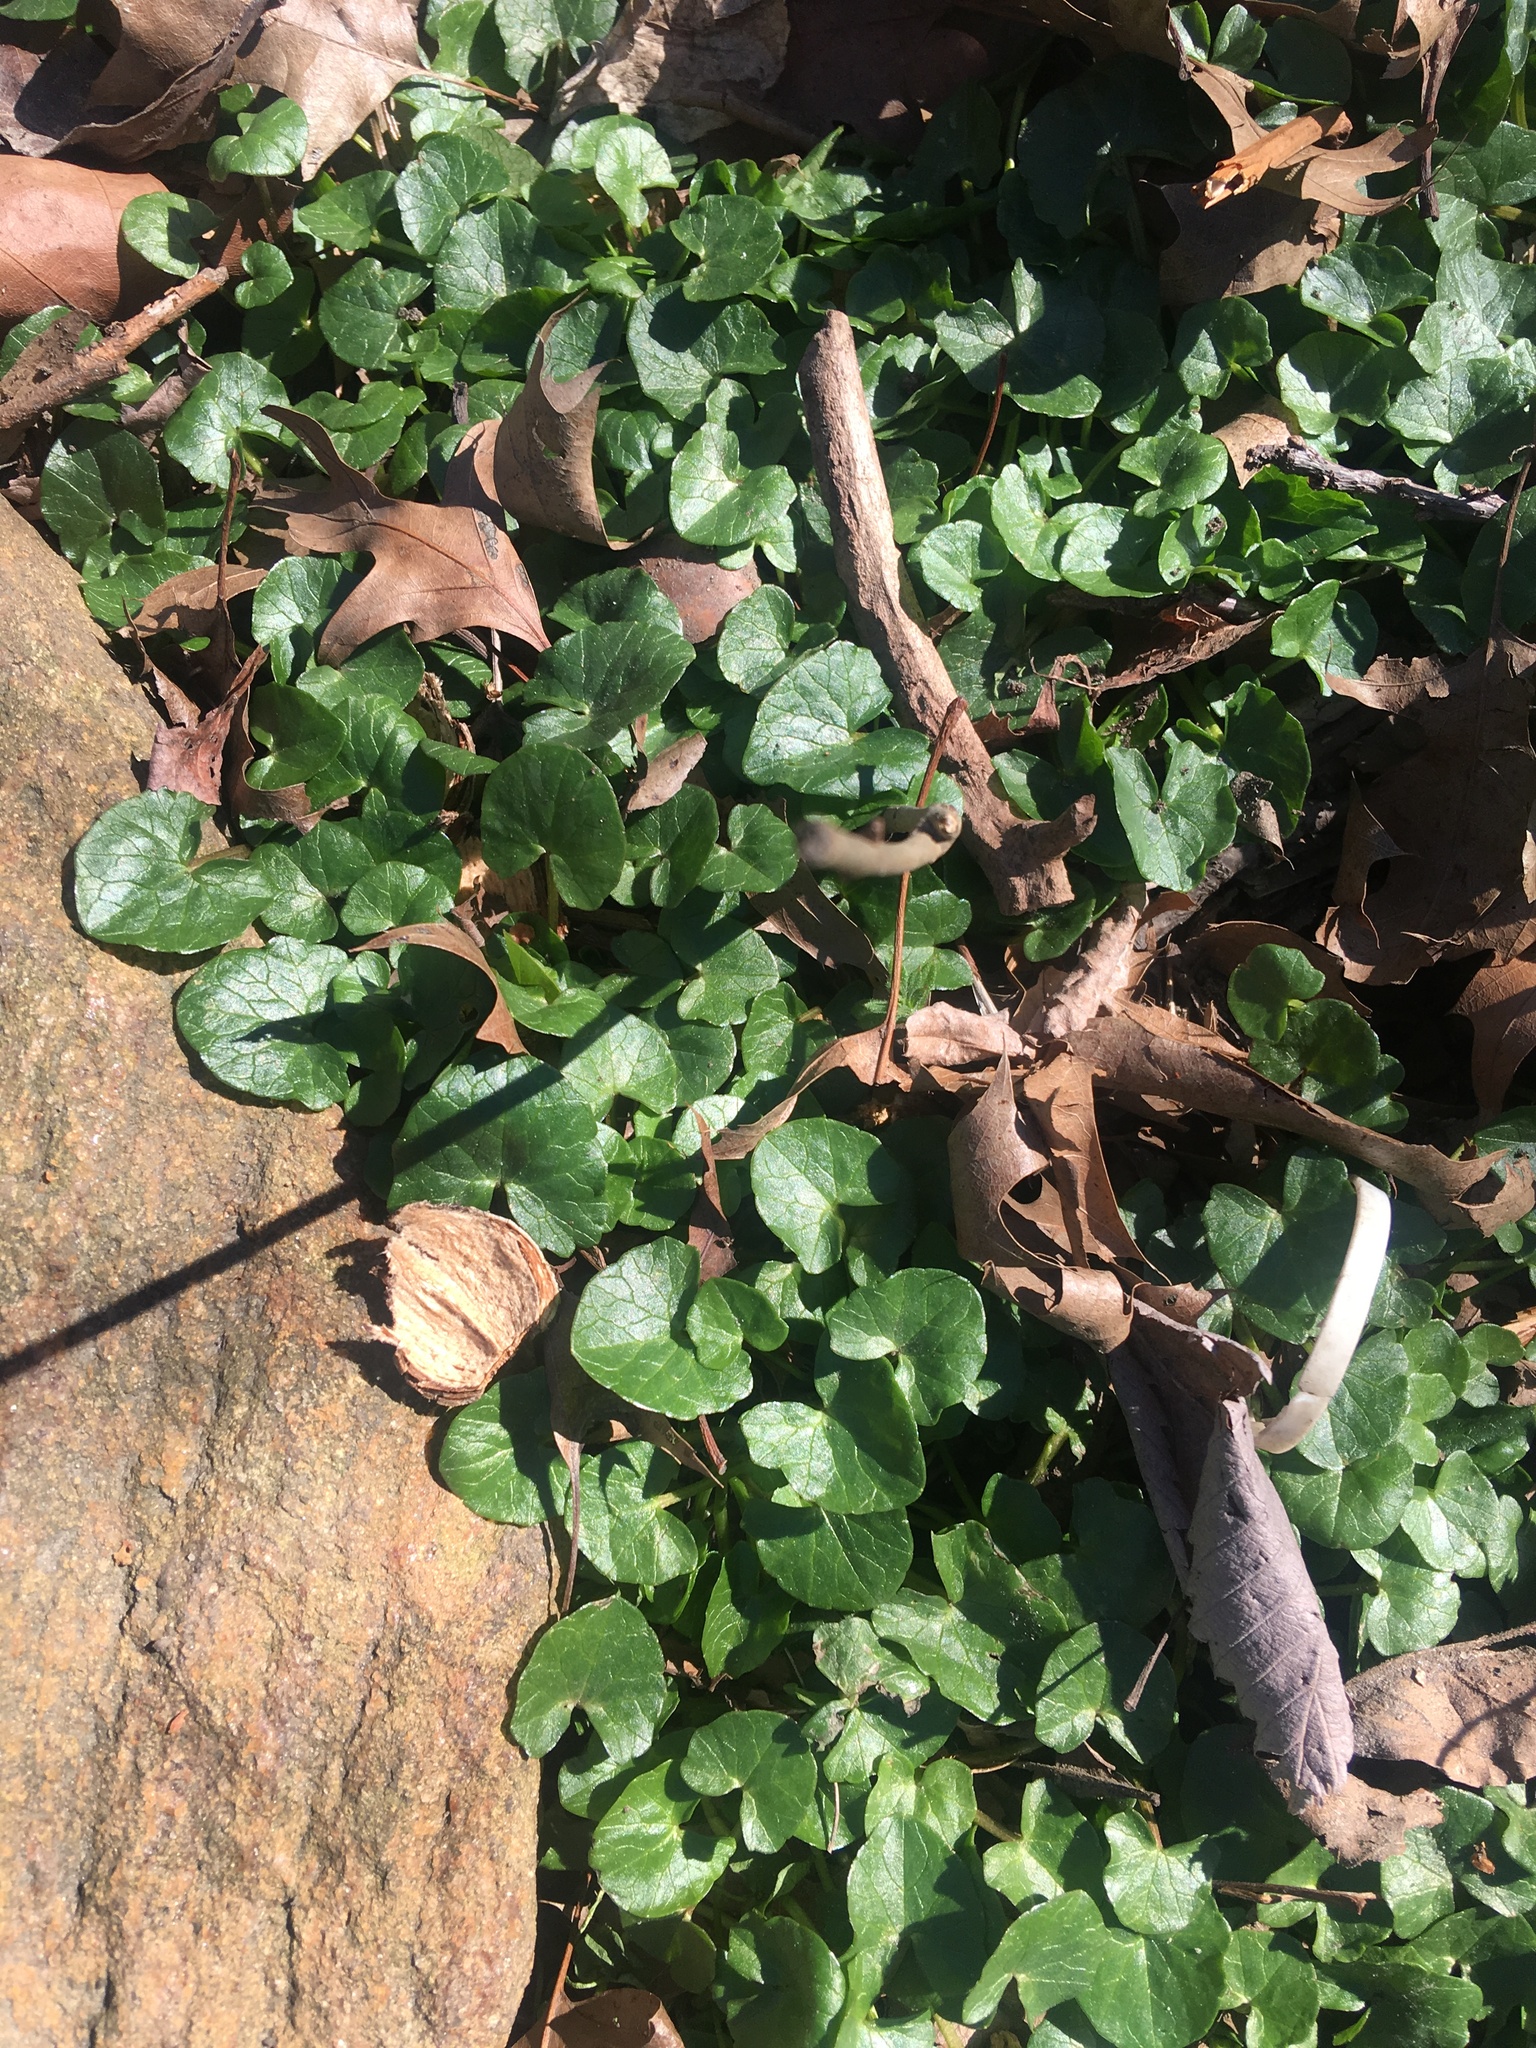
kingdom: Plantae
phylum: Tracheophyta
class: Magnoliopsida
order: Ranunculales
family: Ranunculaceae
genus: Ficaria
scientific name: Ficaria verna
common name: Lesser celandine
